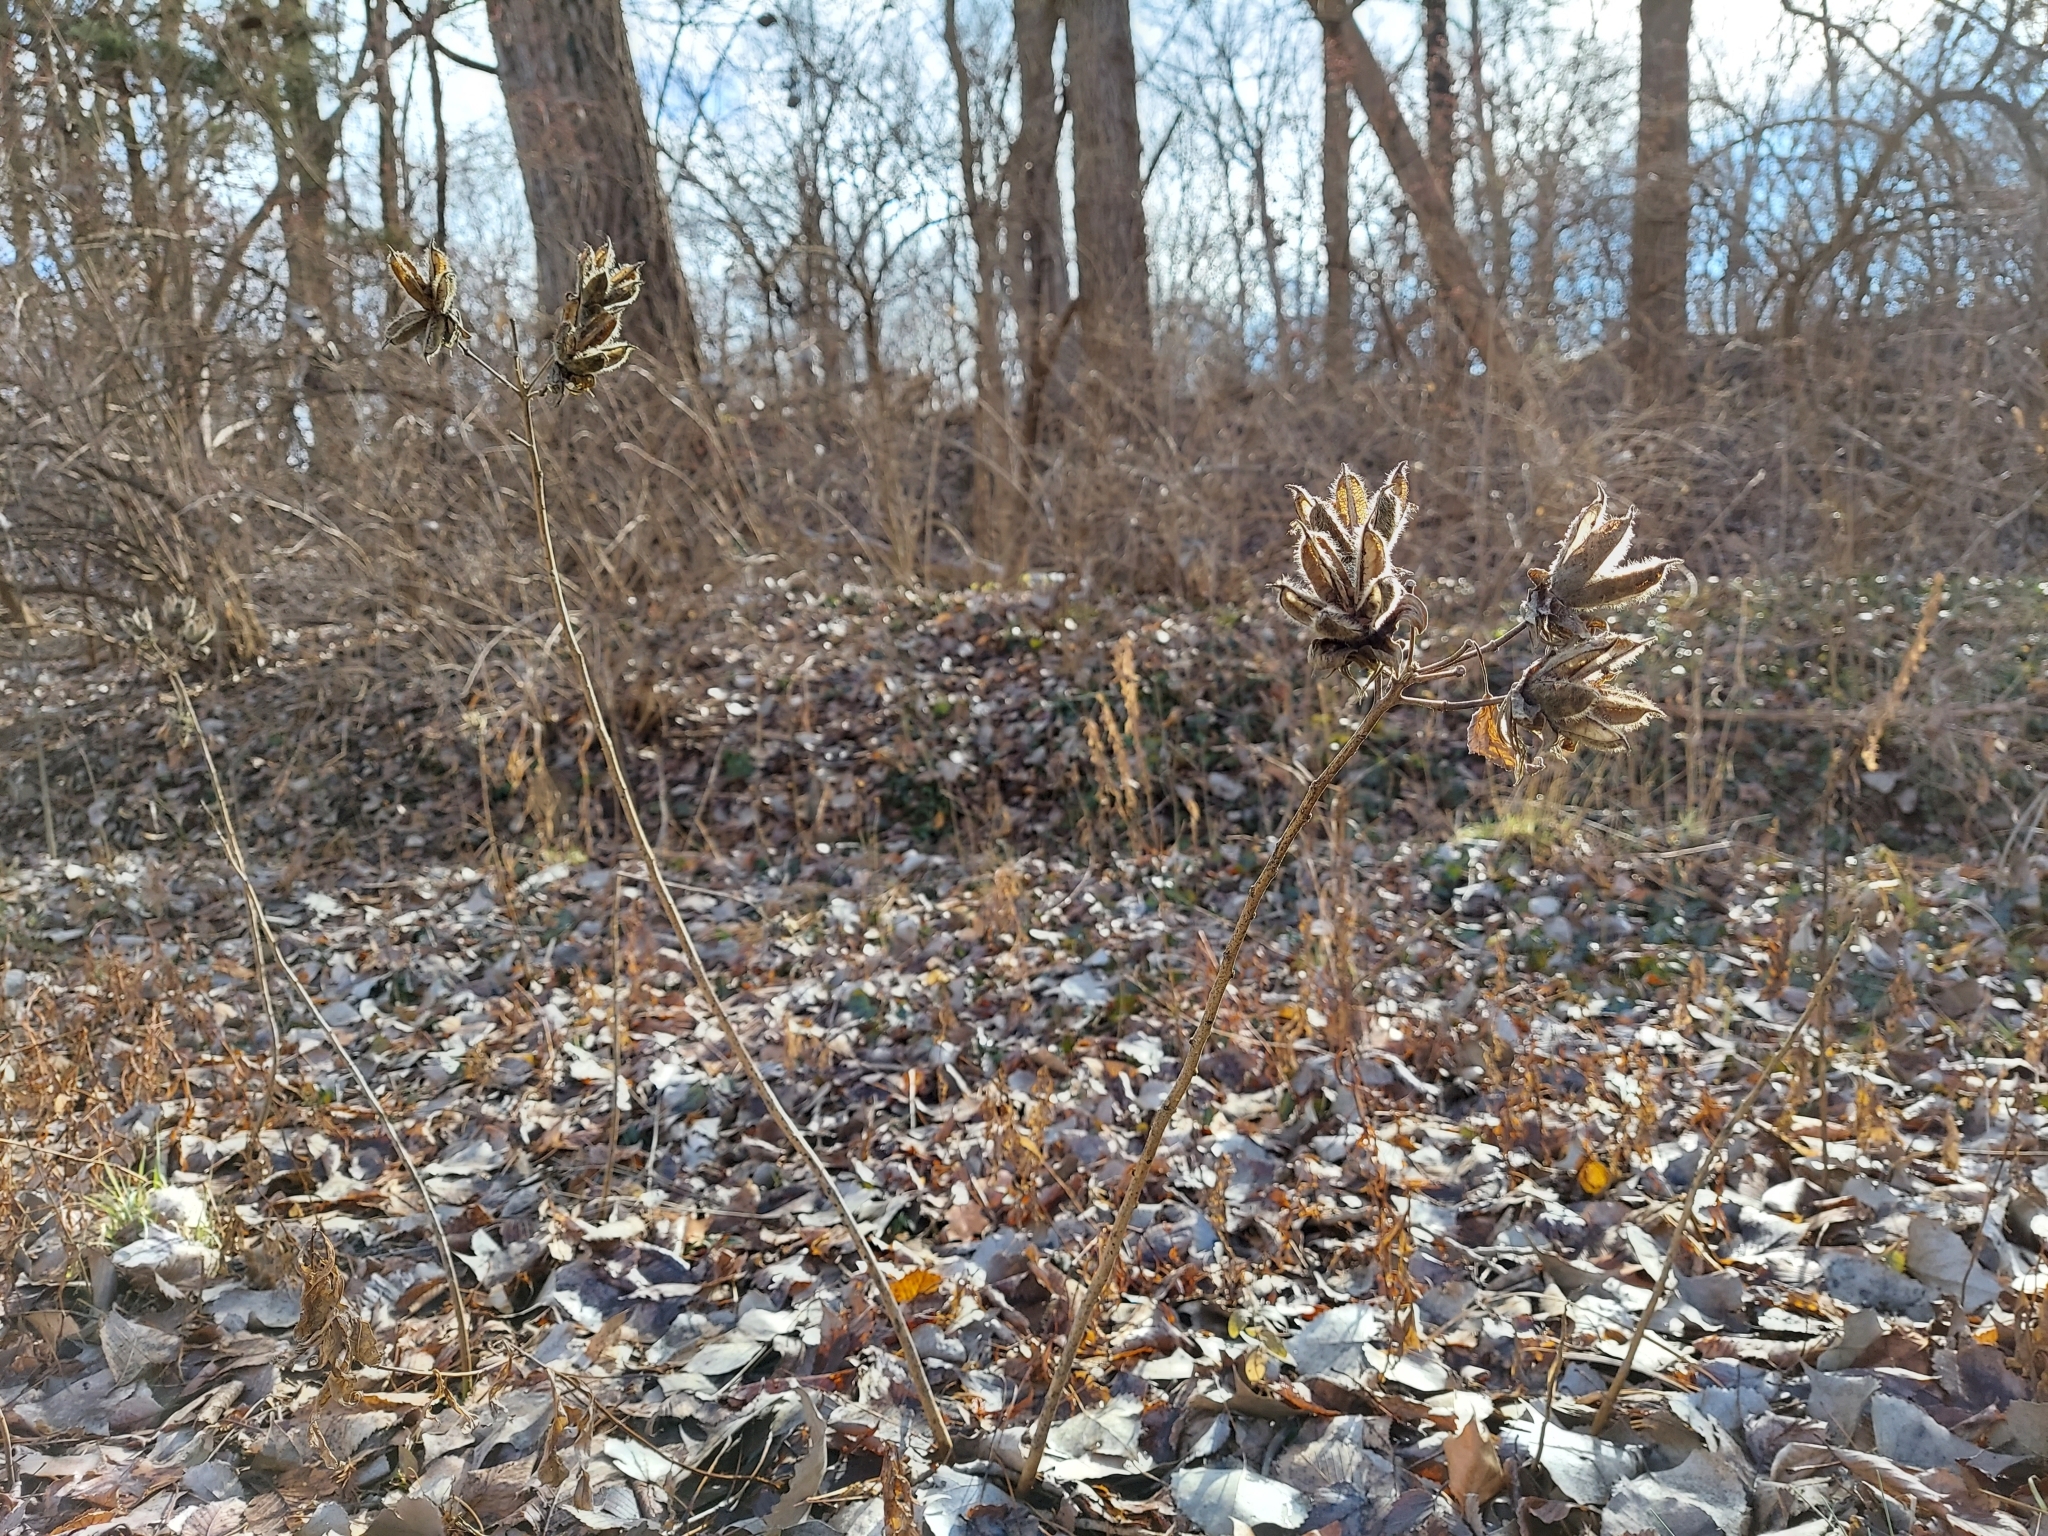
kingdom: Plantae
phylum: Tracheophyta
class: Magnoliopsida
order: Malvales
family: Malvaceae
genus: Hibiscus
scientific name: Hibiscus moscheutos
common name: Common rose-mallow
